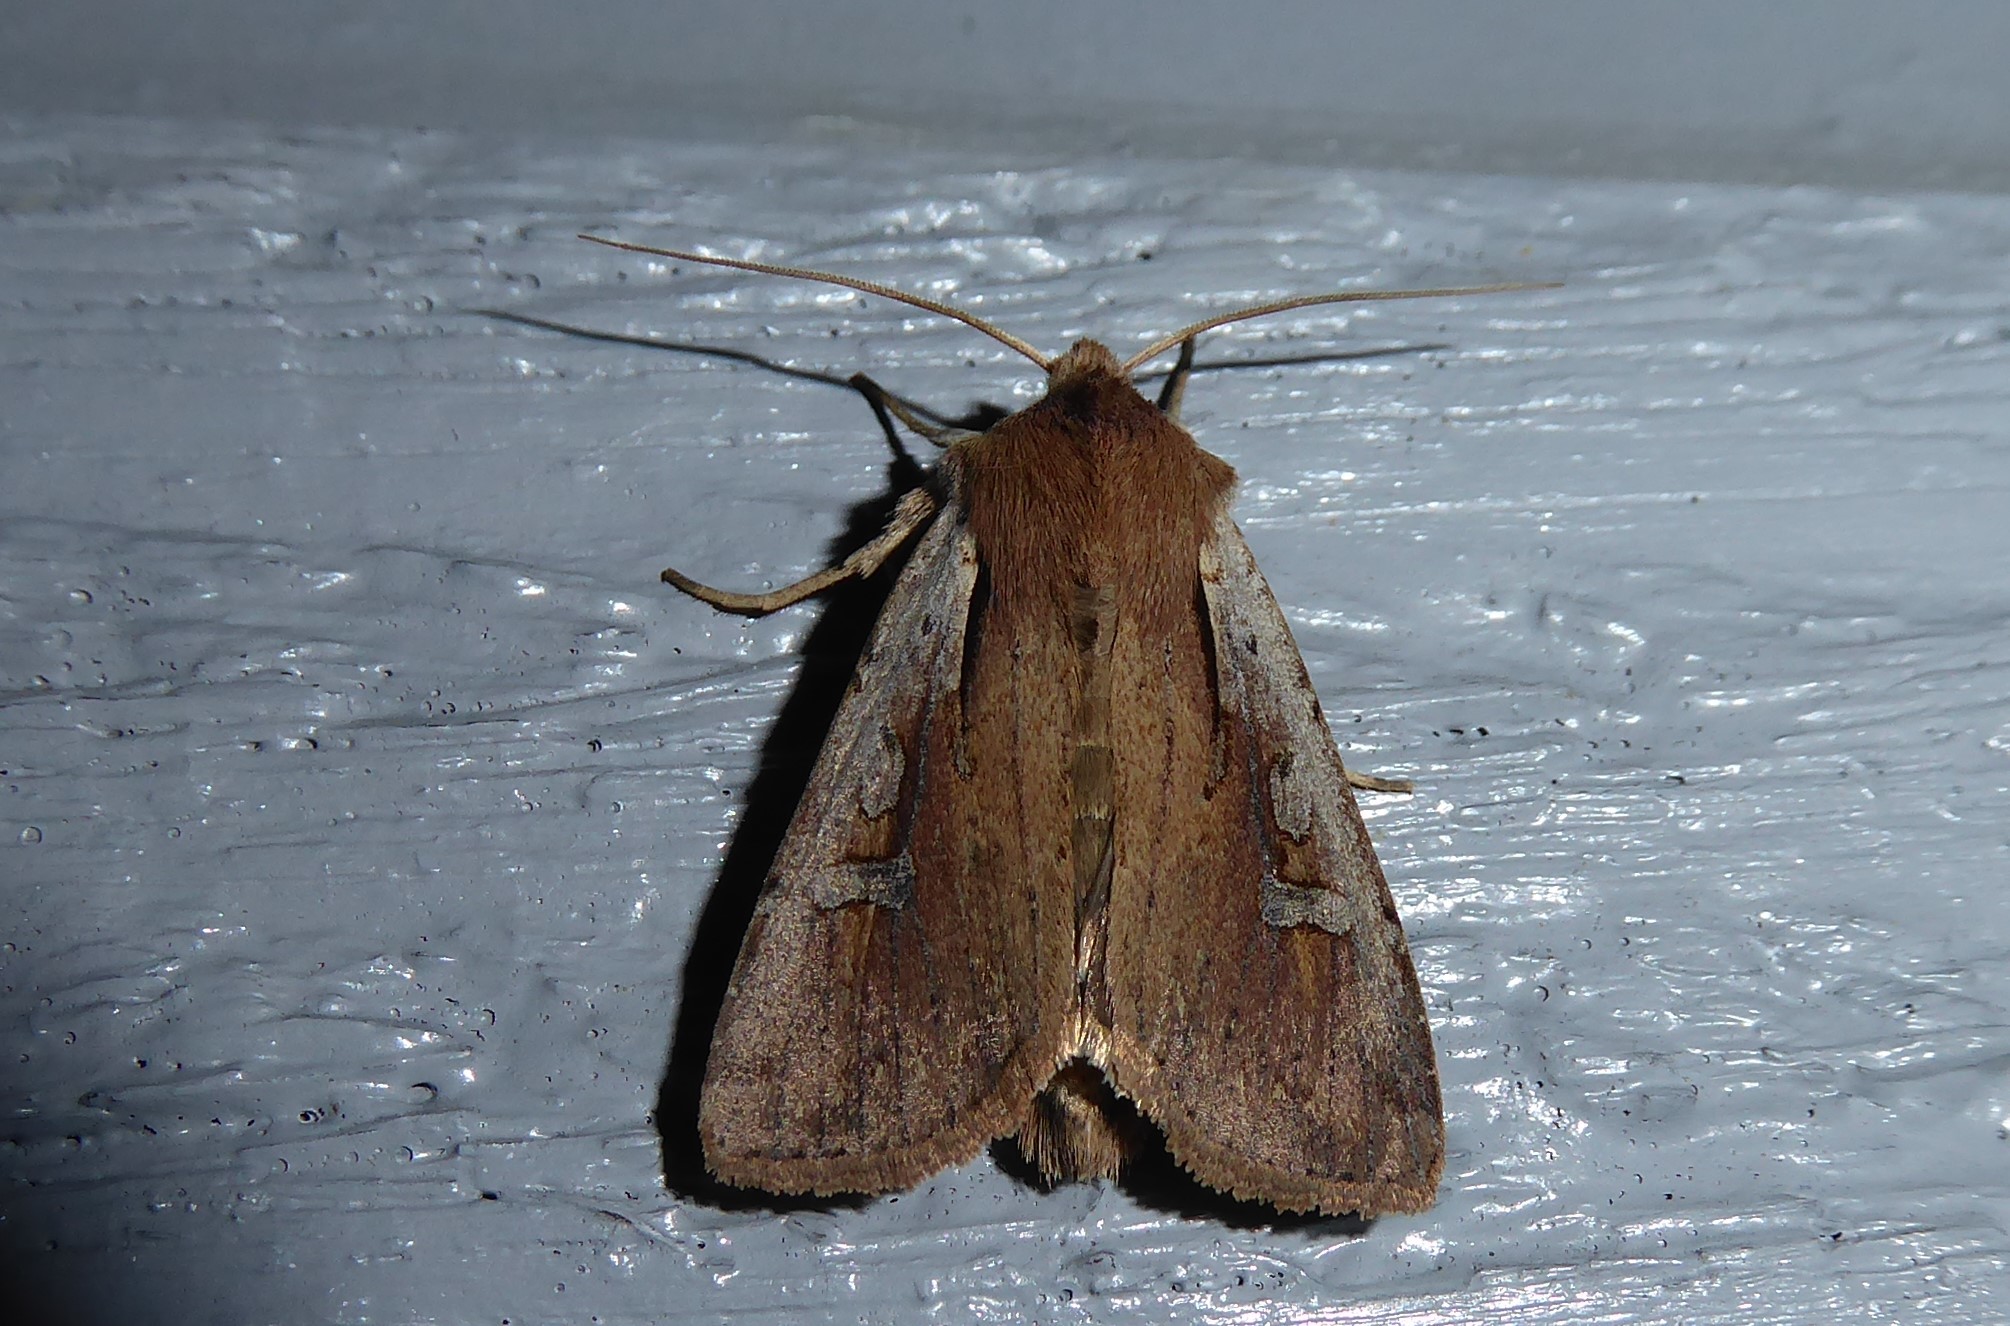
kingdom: Animalia
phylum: Arthropoda
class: Insecta
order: Lepidoptera
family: Noctuidae
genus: Ichneutica
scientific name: Ichneutica atristriga
